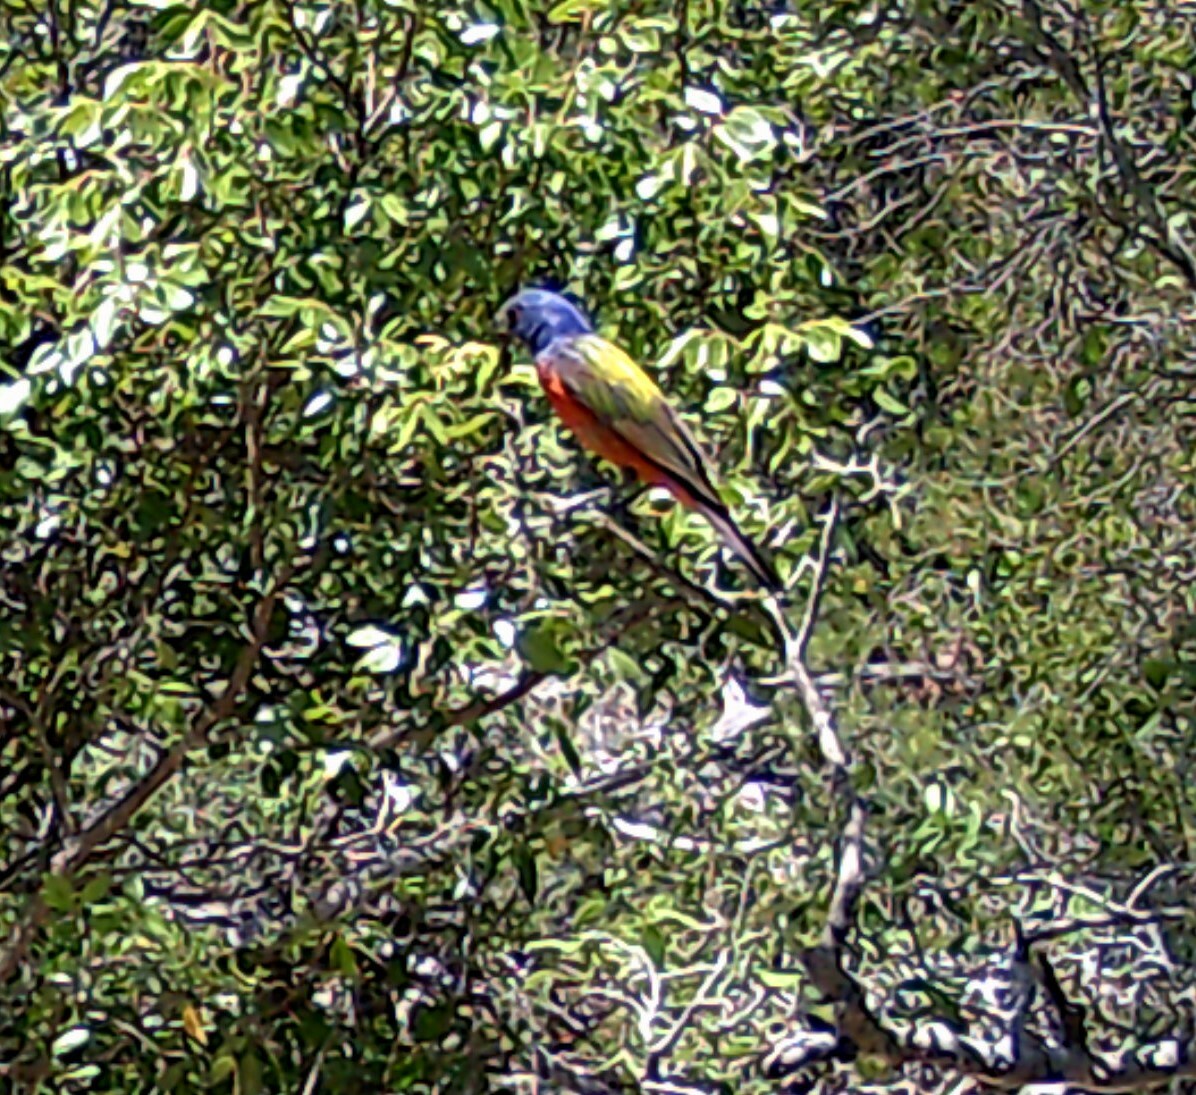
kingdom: Animalia
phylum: Chordata
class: Aves
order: Passeriformes
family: Cardinalidae
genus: Passerina
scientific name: Passerina ciris
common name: Painted bunting
